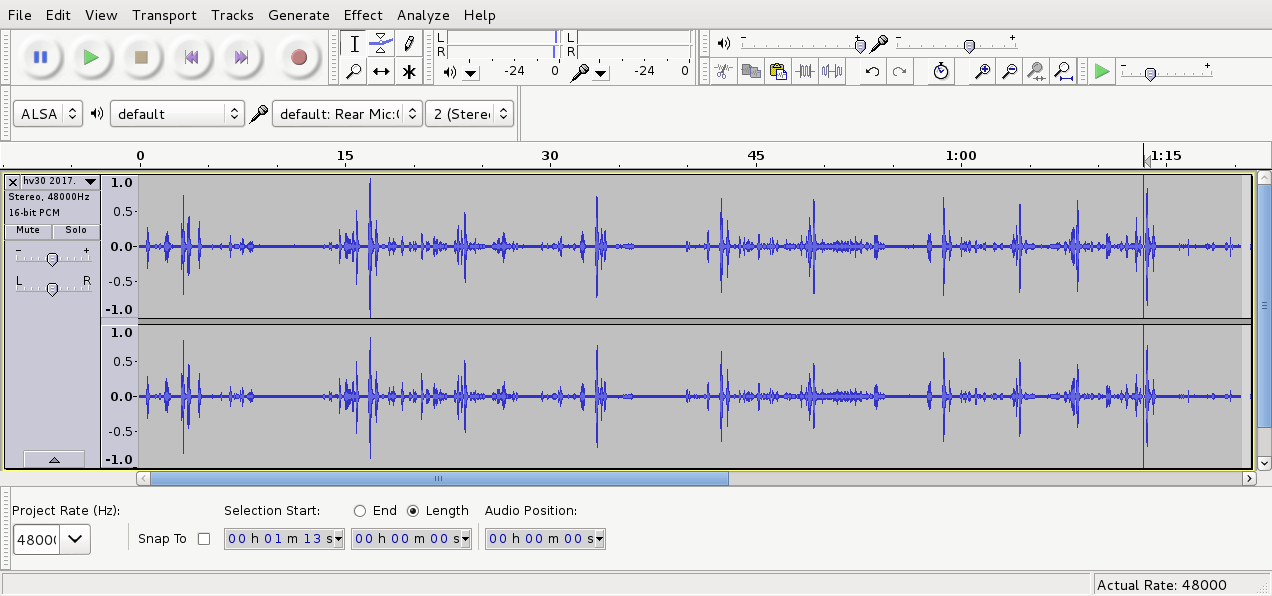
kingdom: Animalia
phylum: Chordata
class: Aves
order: Passeriformes
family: Meliphagidae
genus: Prosthemadera
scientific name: Prosthemadera novaeseelandiae
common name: Tui
